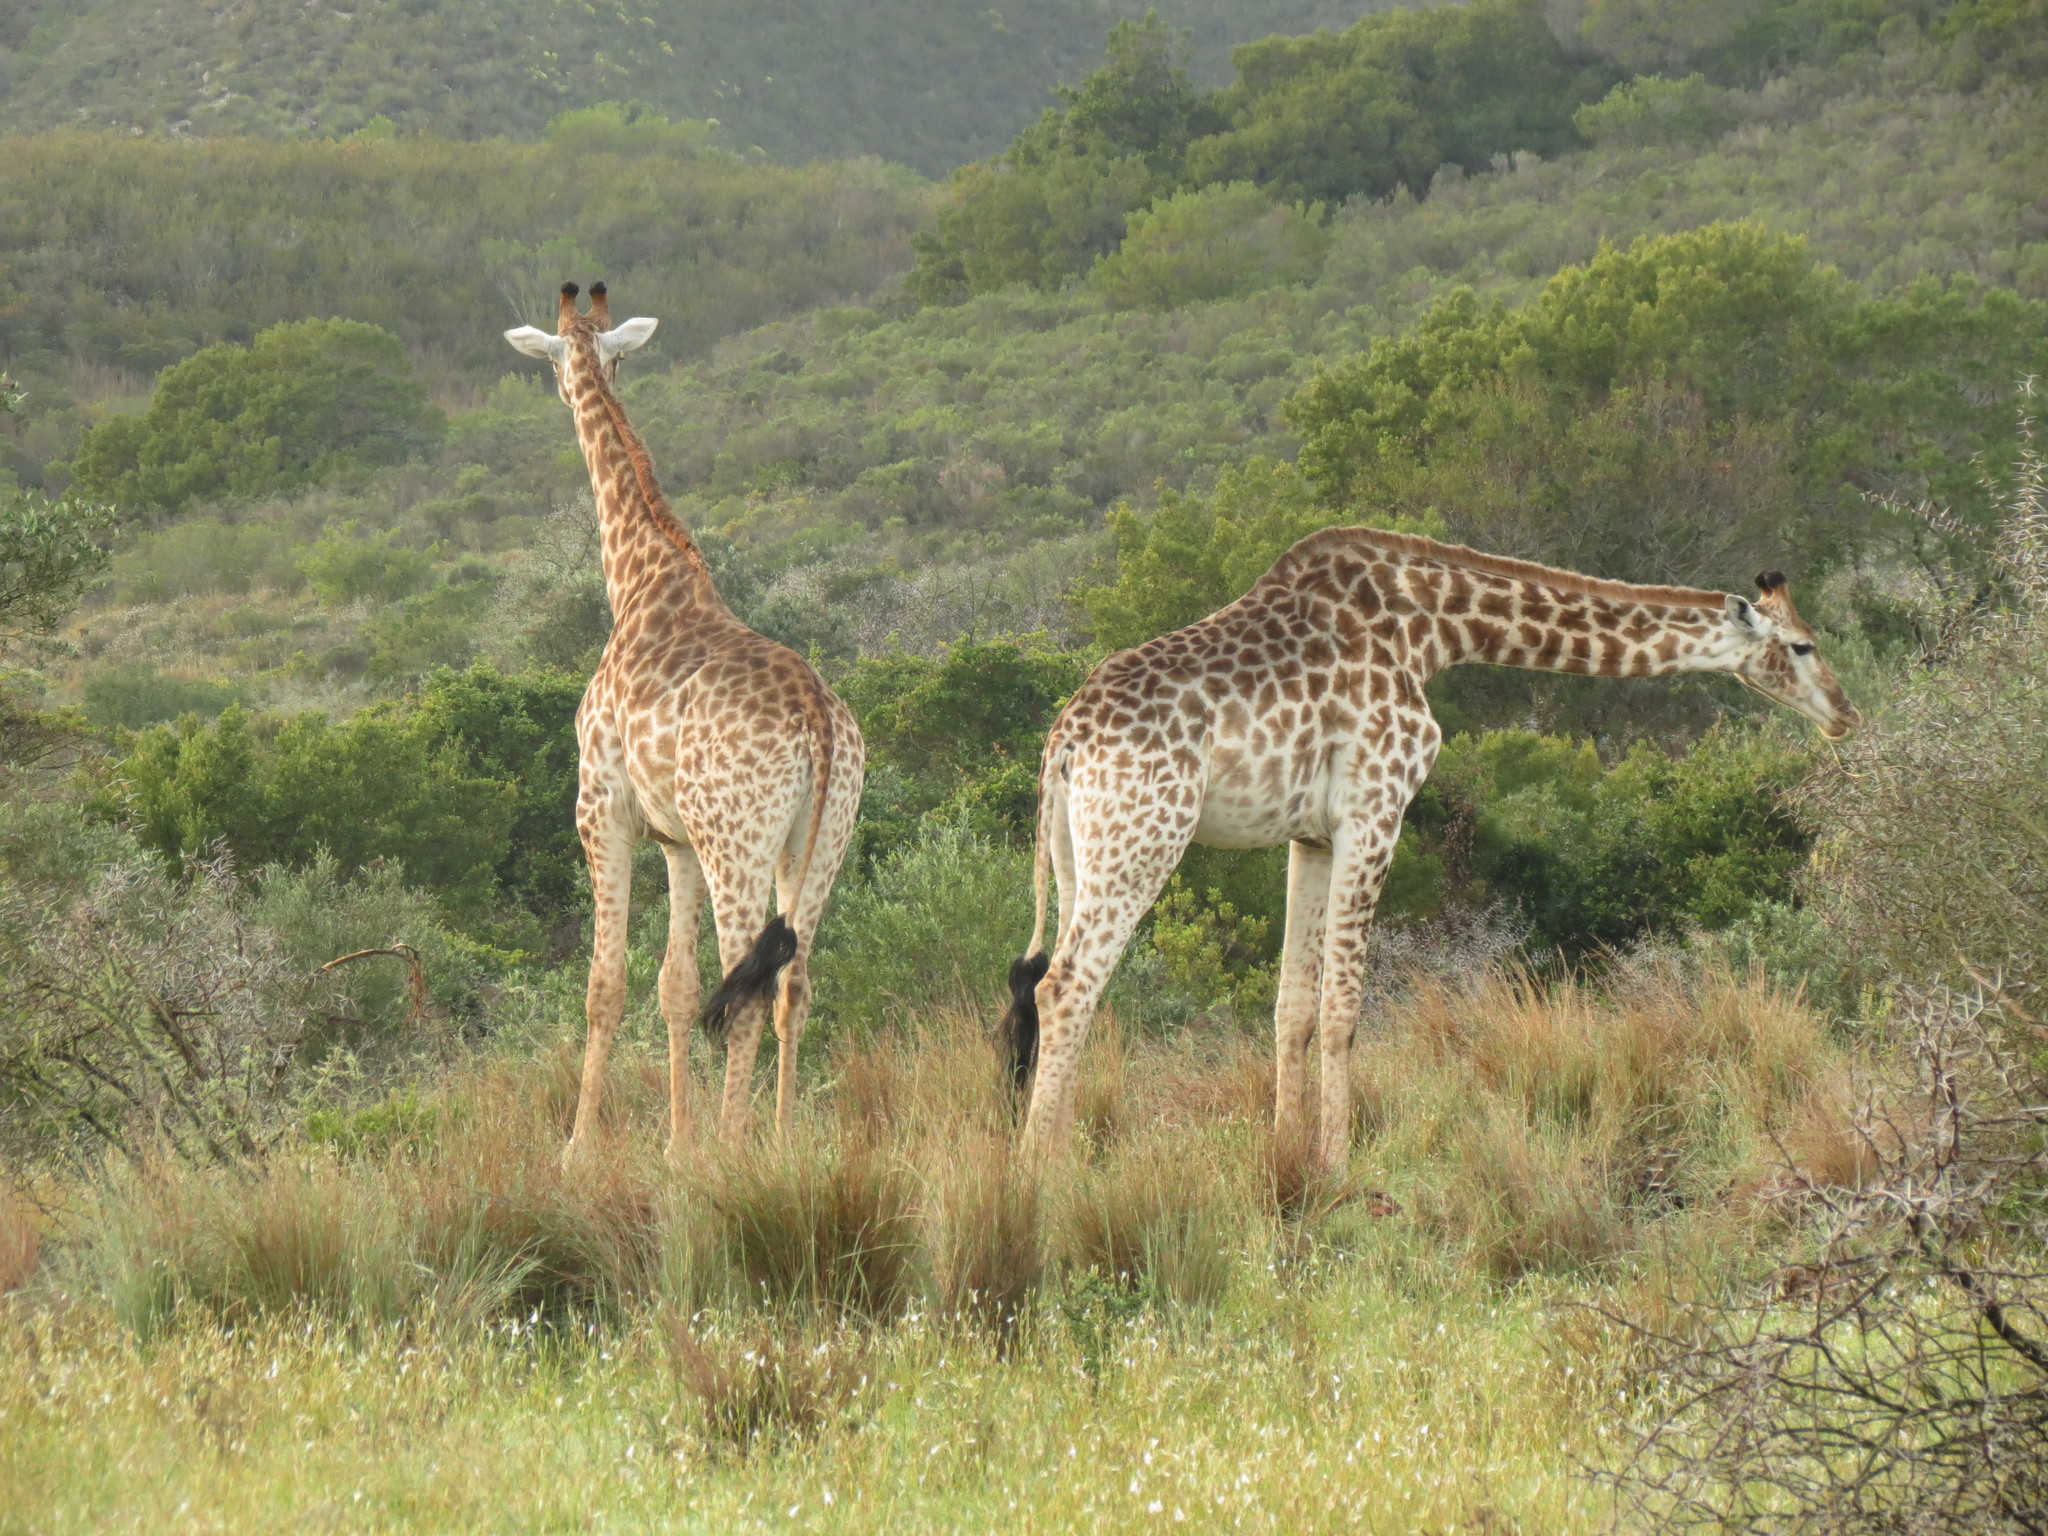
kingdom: Animalia
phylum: Chordata
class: Mammalia
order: Artiodactyla
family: Giraffidae
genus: Giraffa
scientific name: Giraffa giraffa
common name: Southern giraffe
